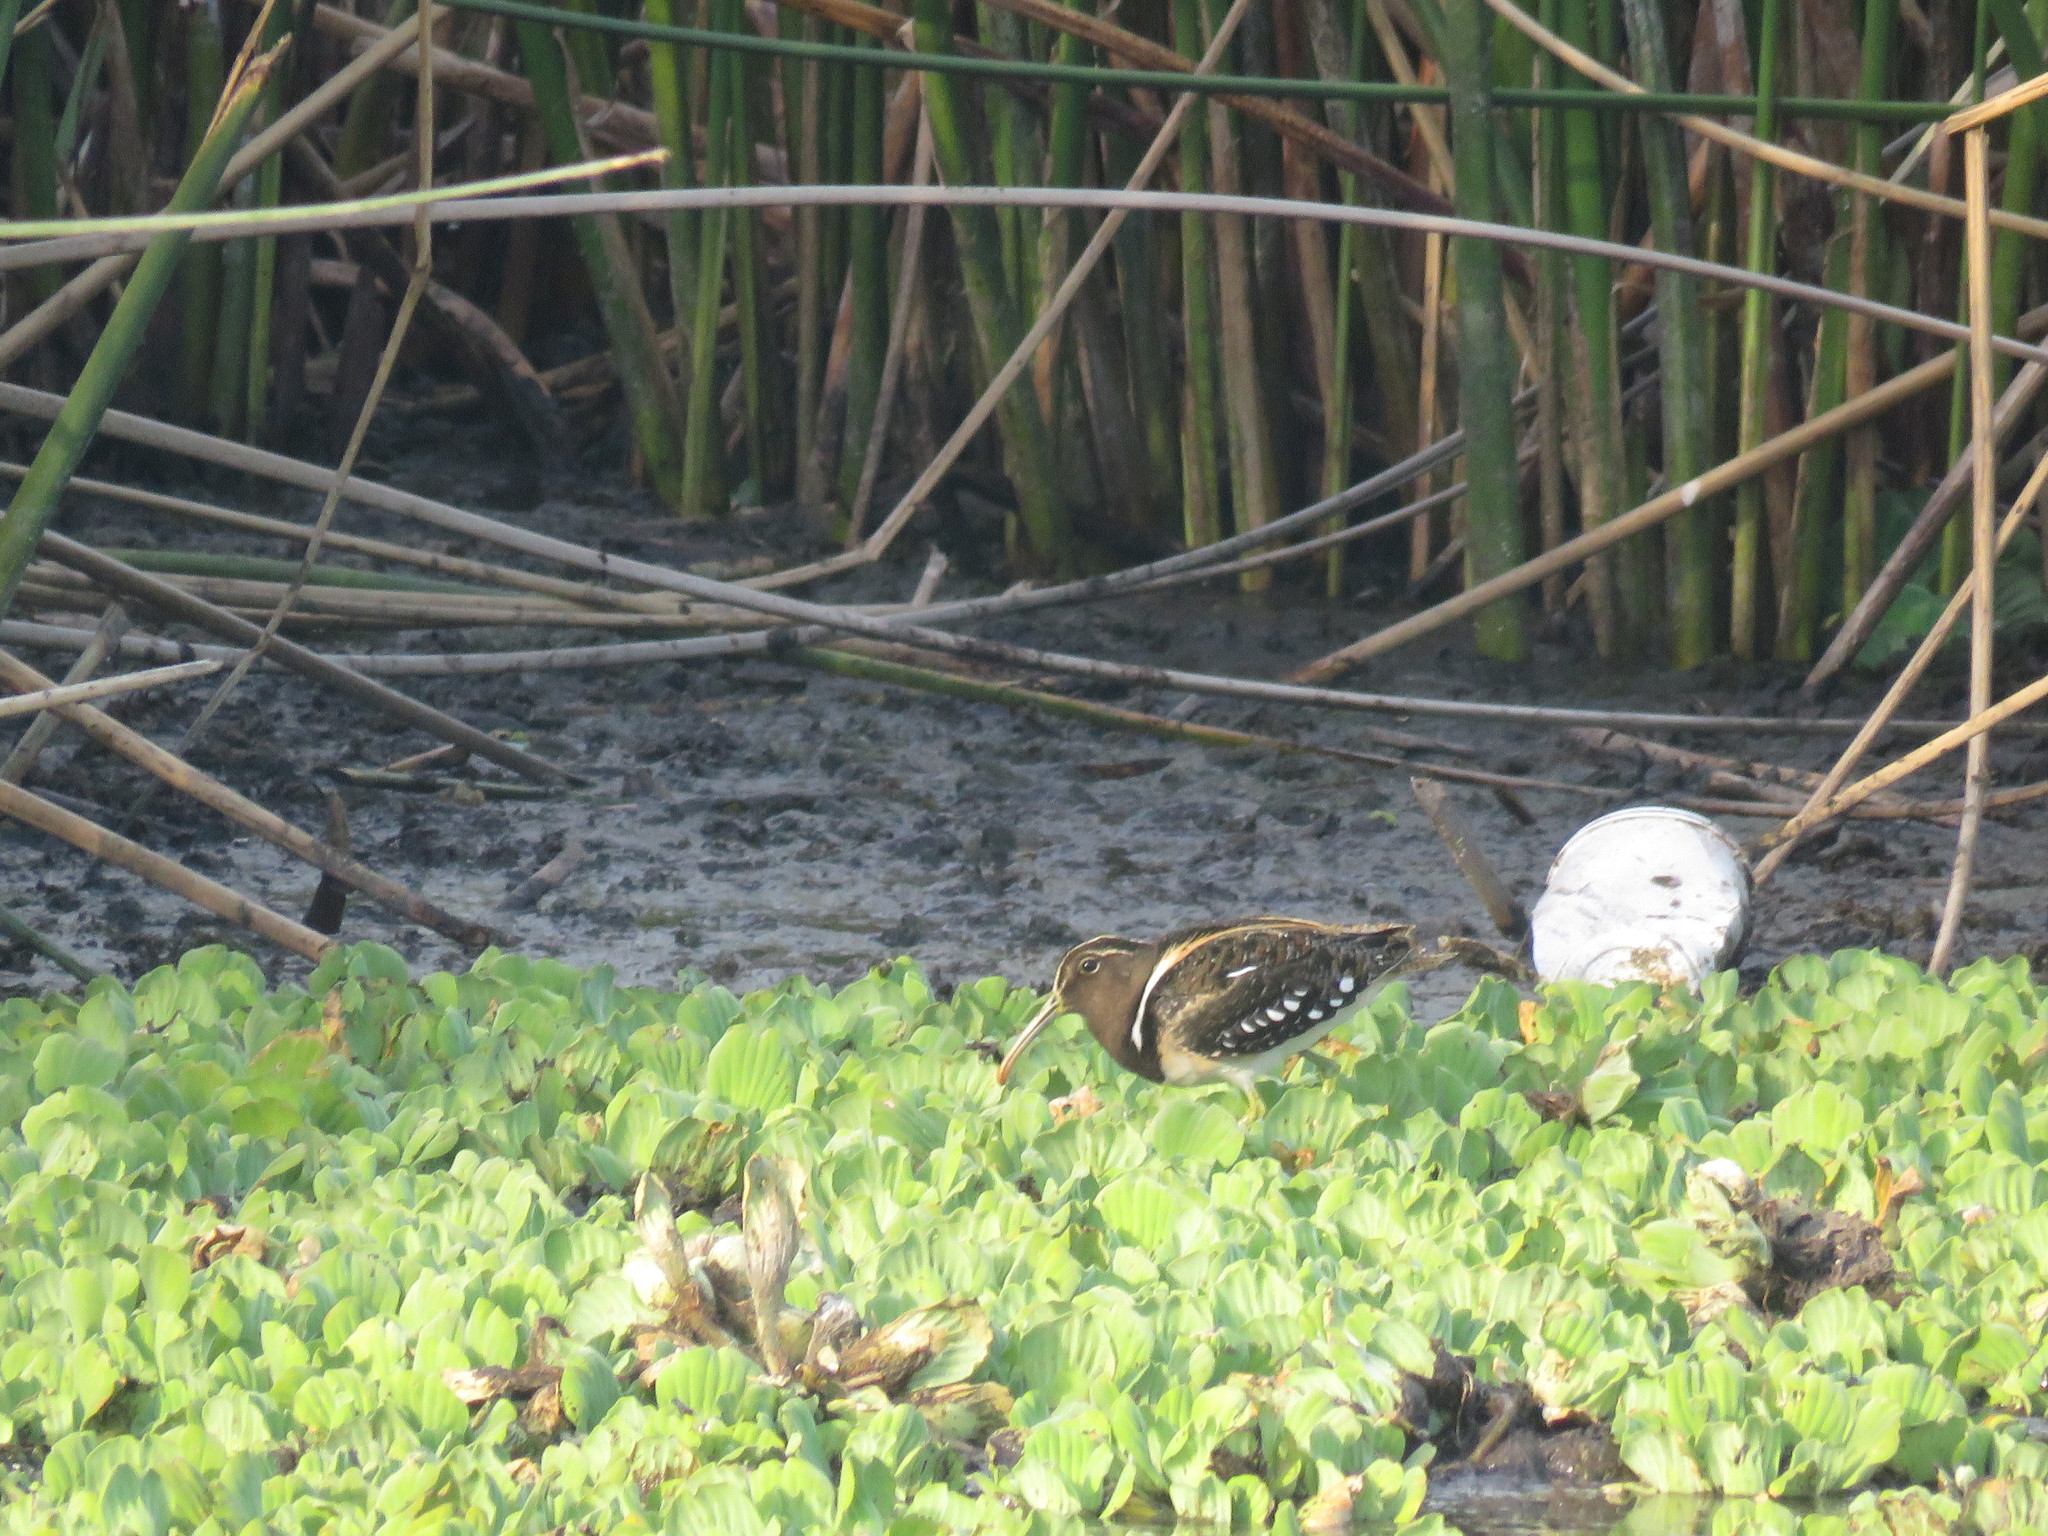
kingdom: Animalia
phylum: Chordata
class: Aves
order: Charadriiformes
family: Rostratulidae
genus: Nycticryphes
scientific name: Nycticryphes semicollaris
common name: South american painted-snipe
